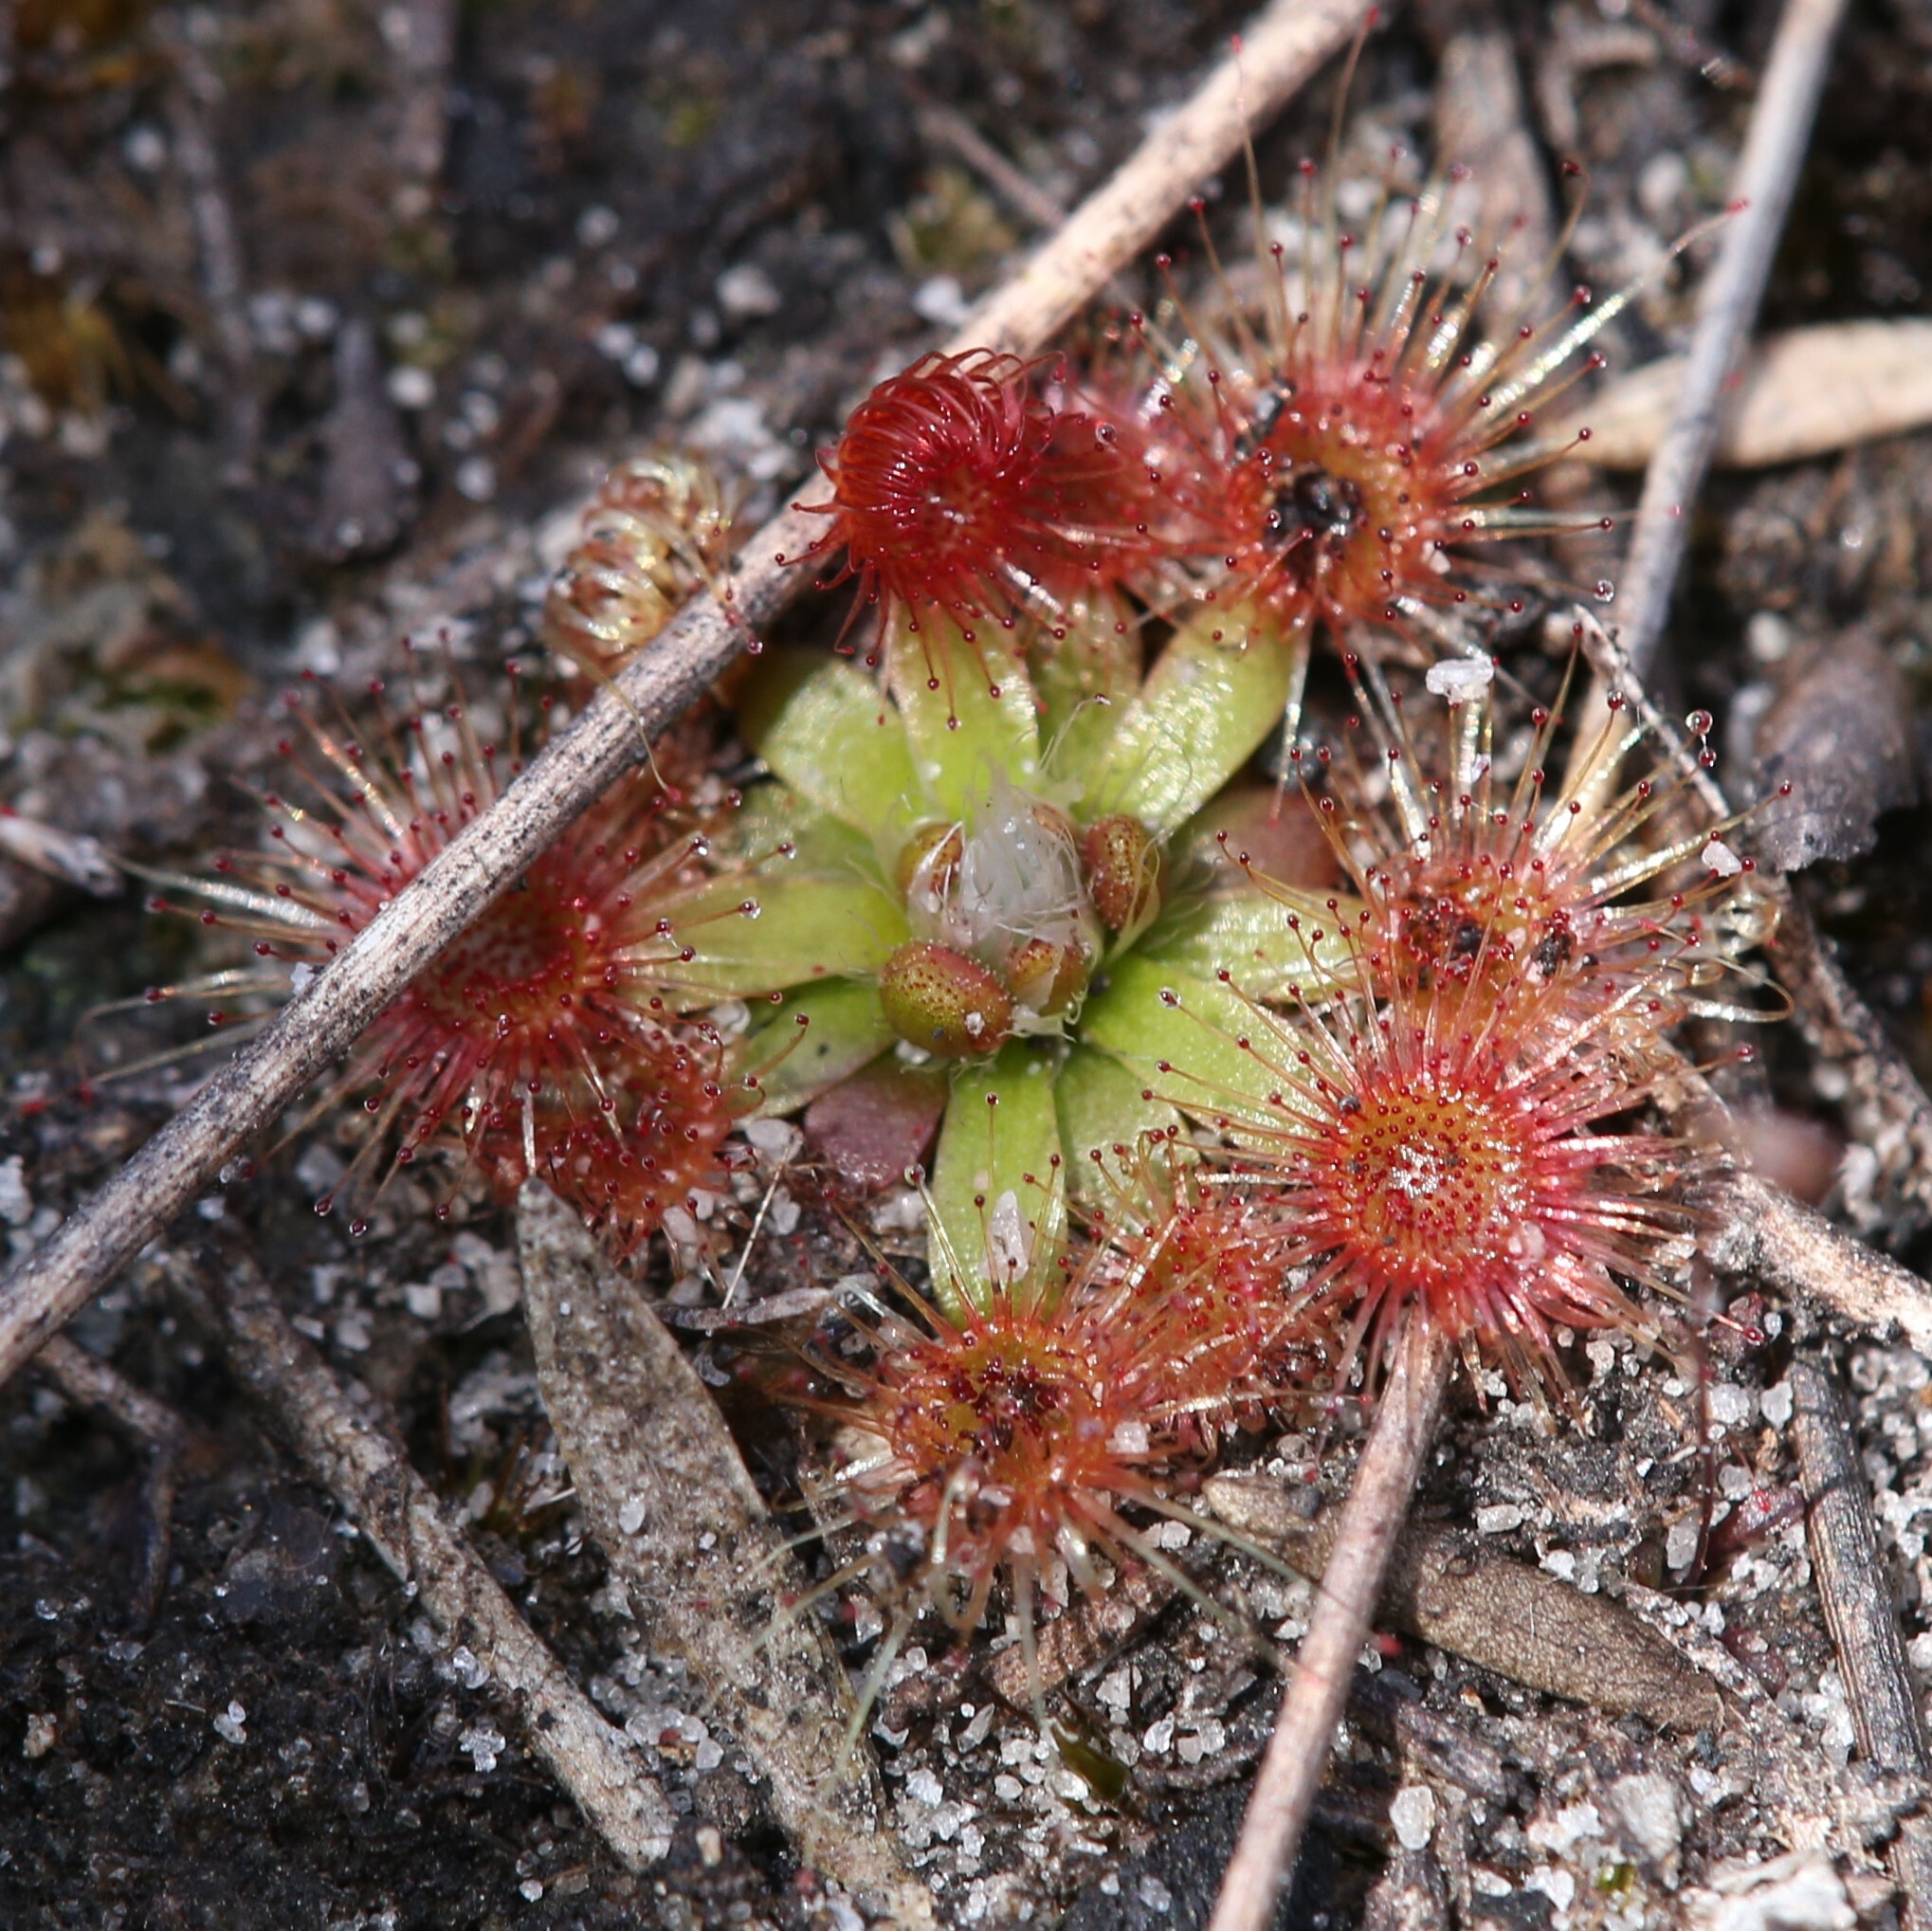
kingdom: Plantae
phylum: Tracheophyta
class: Magnoliopsida
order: Caryophyllales
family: Droseraceae
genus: Drosera
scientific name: Drosera pulchella
